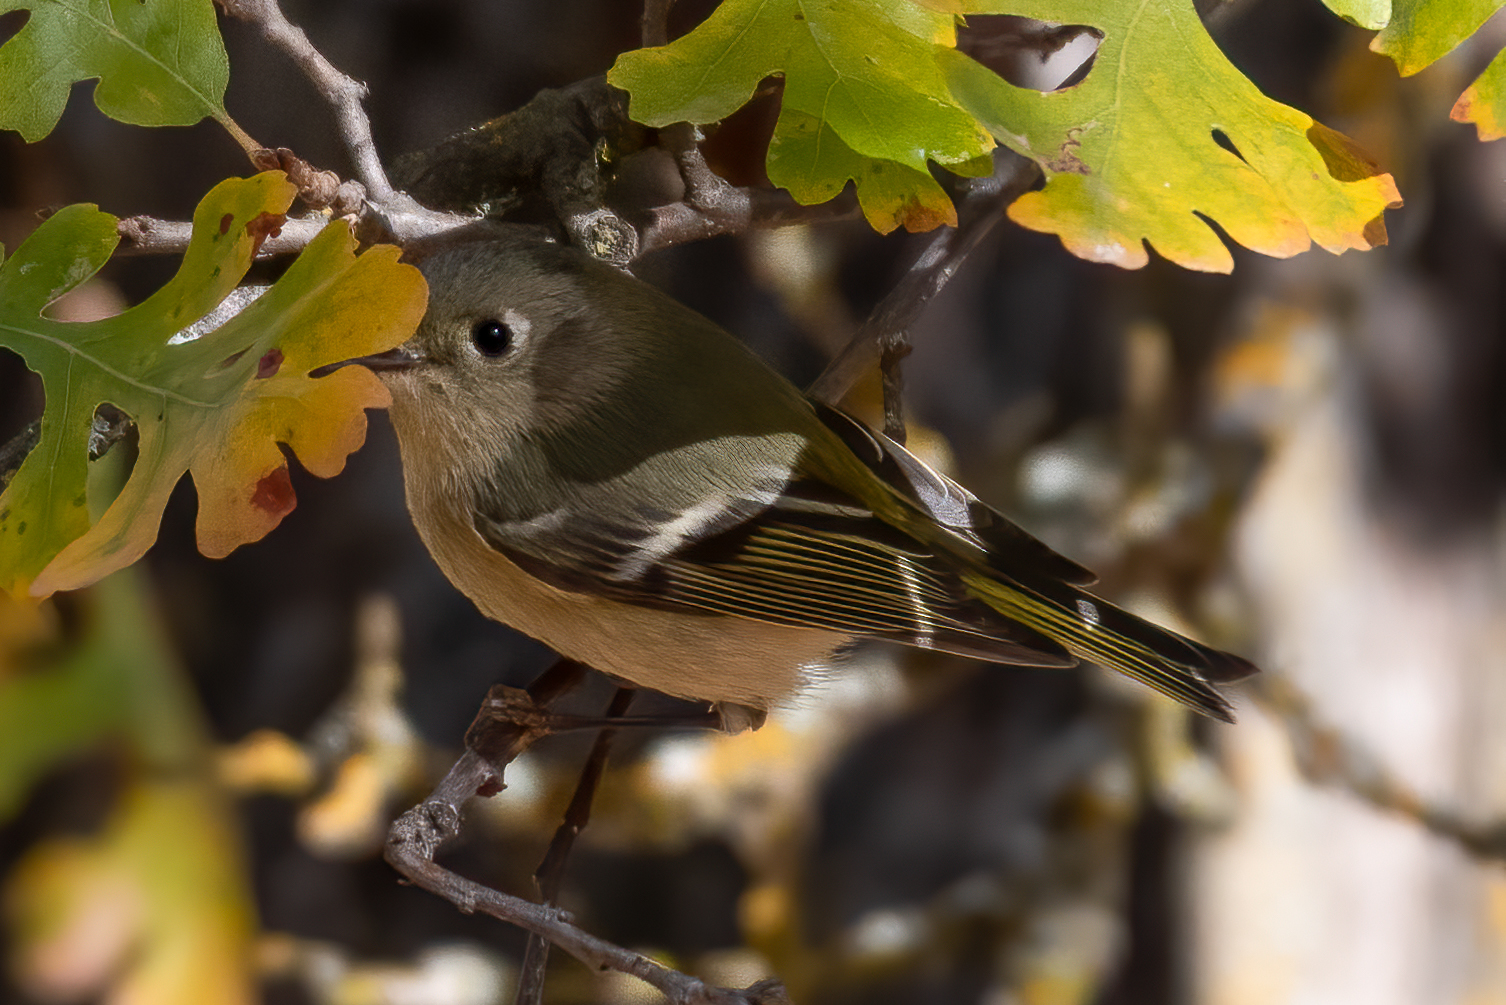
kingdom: Animalia
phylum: Chordata
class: Aves
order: Passeriformes
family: Regulidae
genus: Regulus
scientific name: Regulus calendula
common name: Ruby-crowned kinglet
